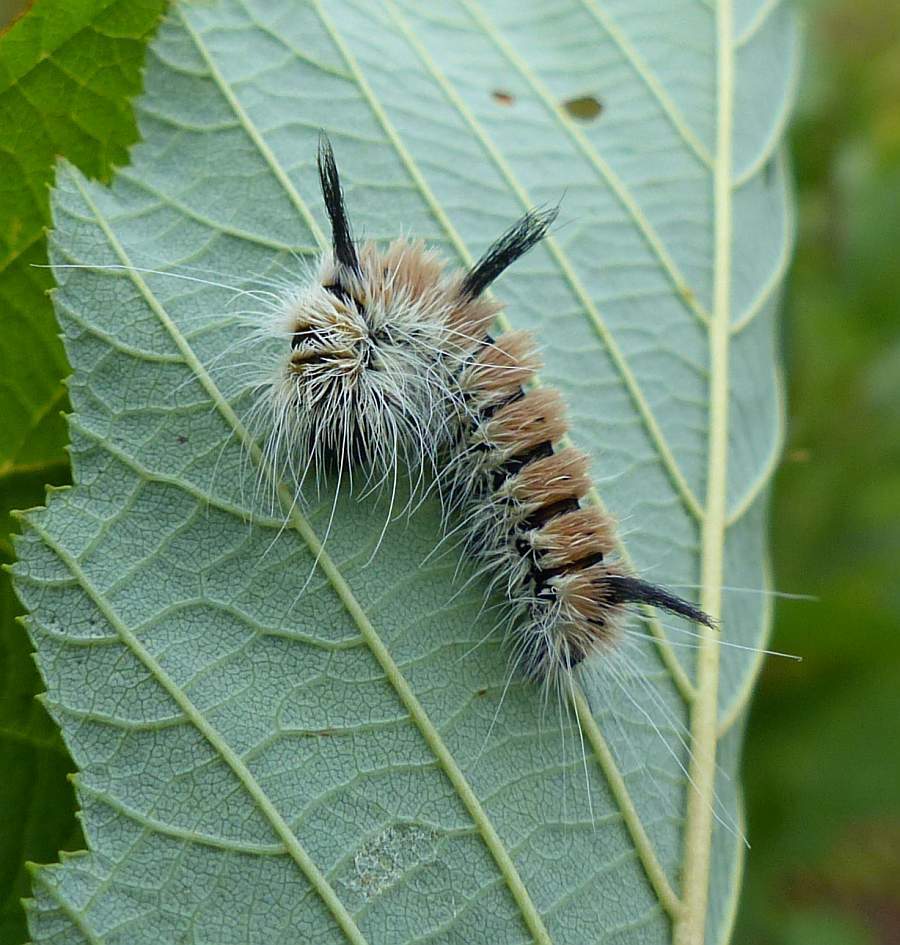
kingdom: Animalia
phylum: Arthropoda
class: Insecta
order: Lepidoptera
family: Noctuidae
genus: Acronicta
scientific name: Acronicta insita
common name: Large gray dagger
